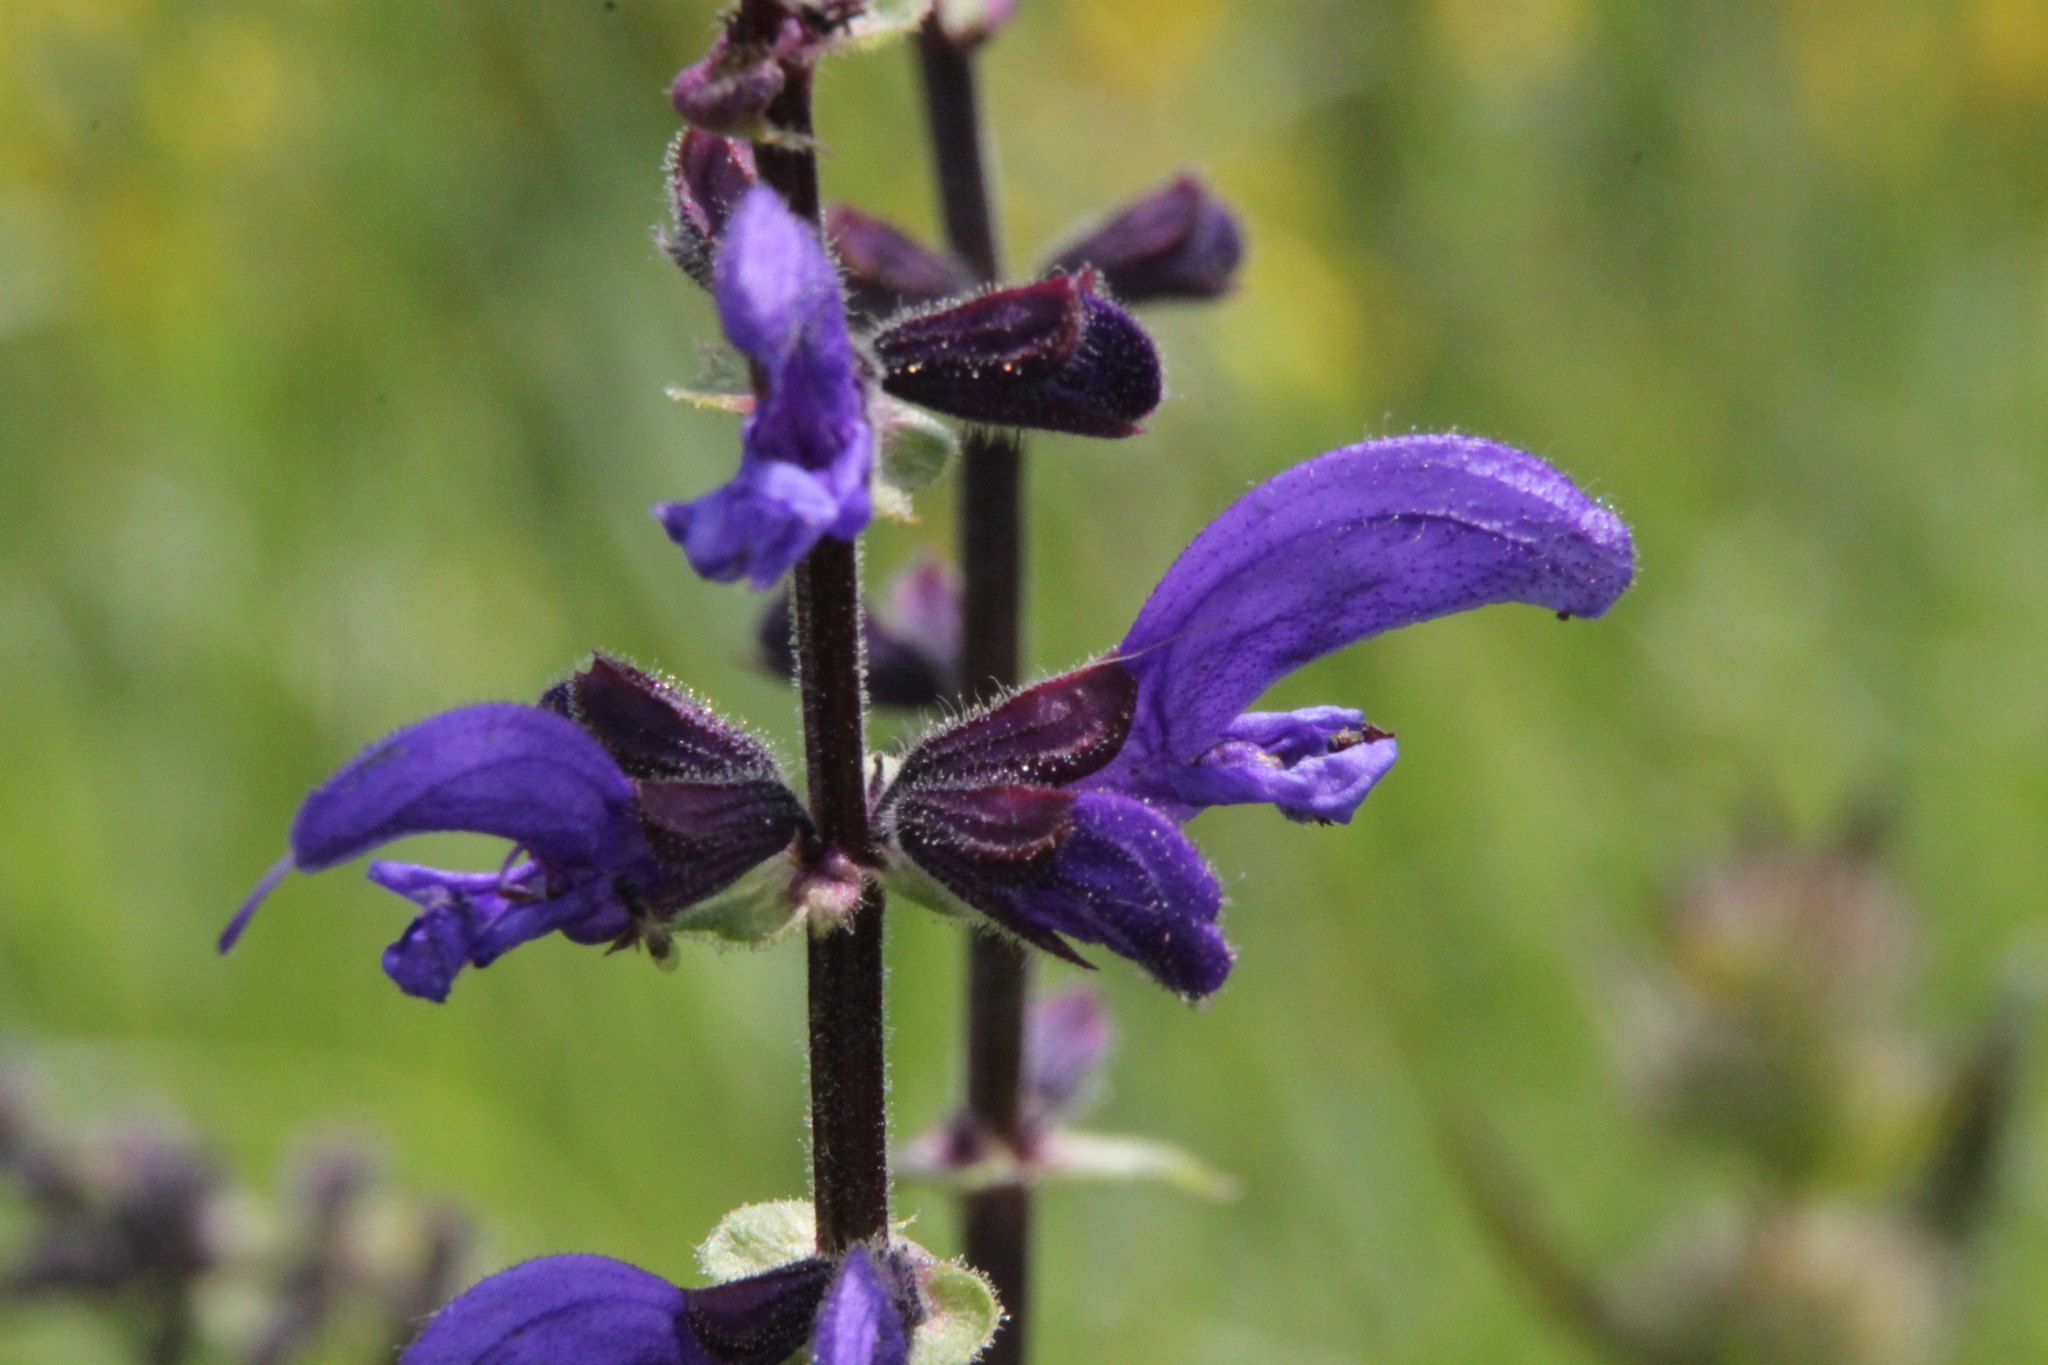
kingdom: Plantae
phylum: Tracheophyta
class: Magnoliopsida
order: Lamiales
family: Lamiaceae
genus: Salvia
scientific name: Salvia pratensis
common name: Meadow sage
